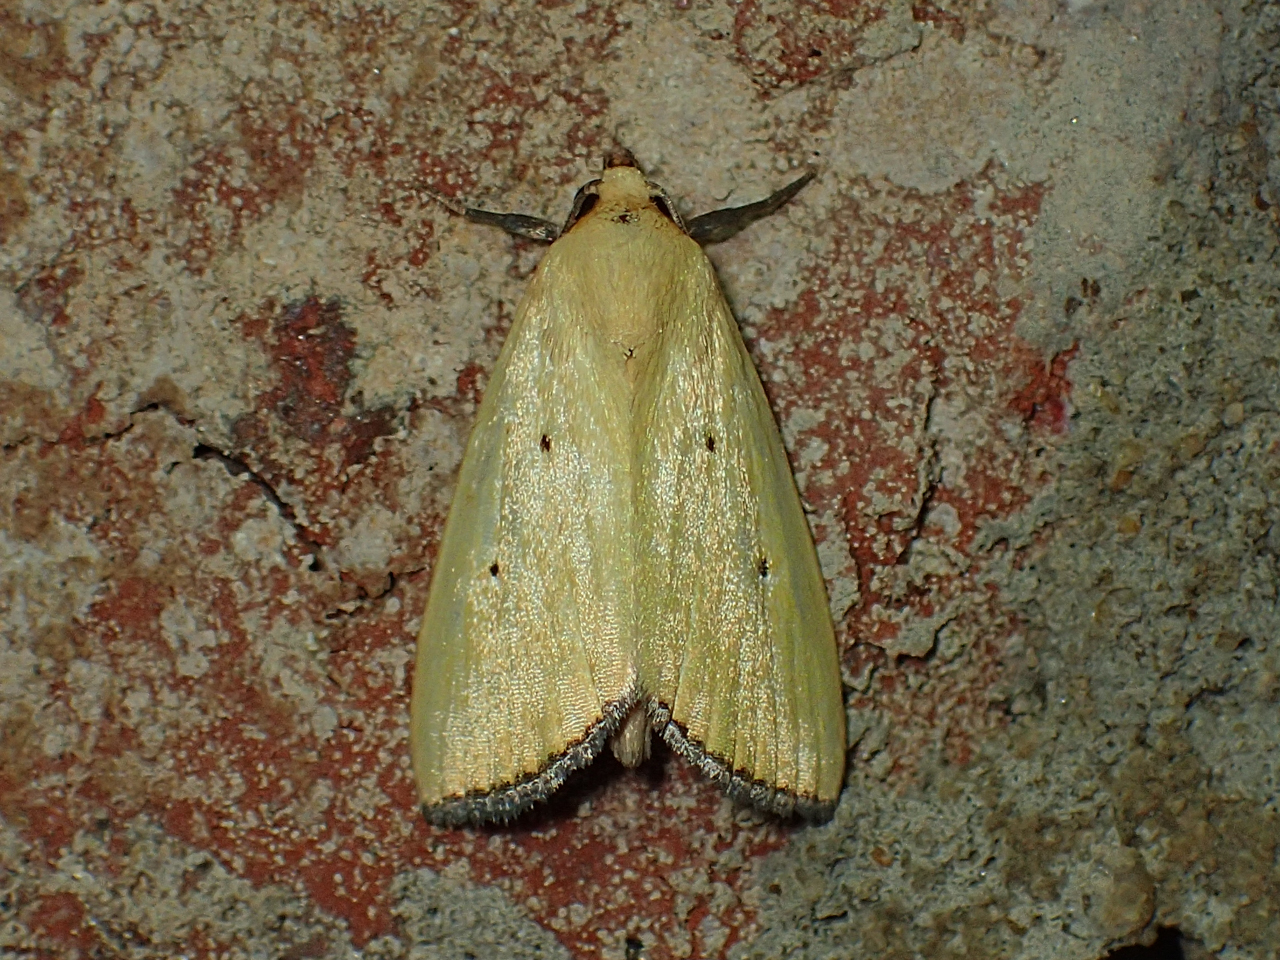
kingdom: Animalia
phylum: Arthropoda
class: Insecta
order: Lepidoptera
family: Noctuidae
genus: Marimatha
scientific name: Marimatha nigrofimbria
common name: Black-bordered lemon moth
